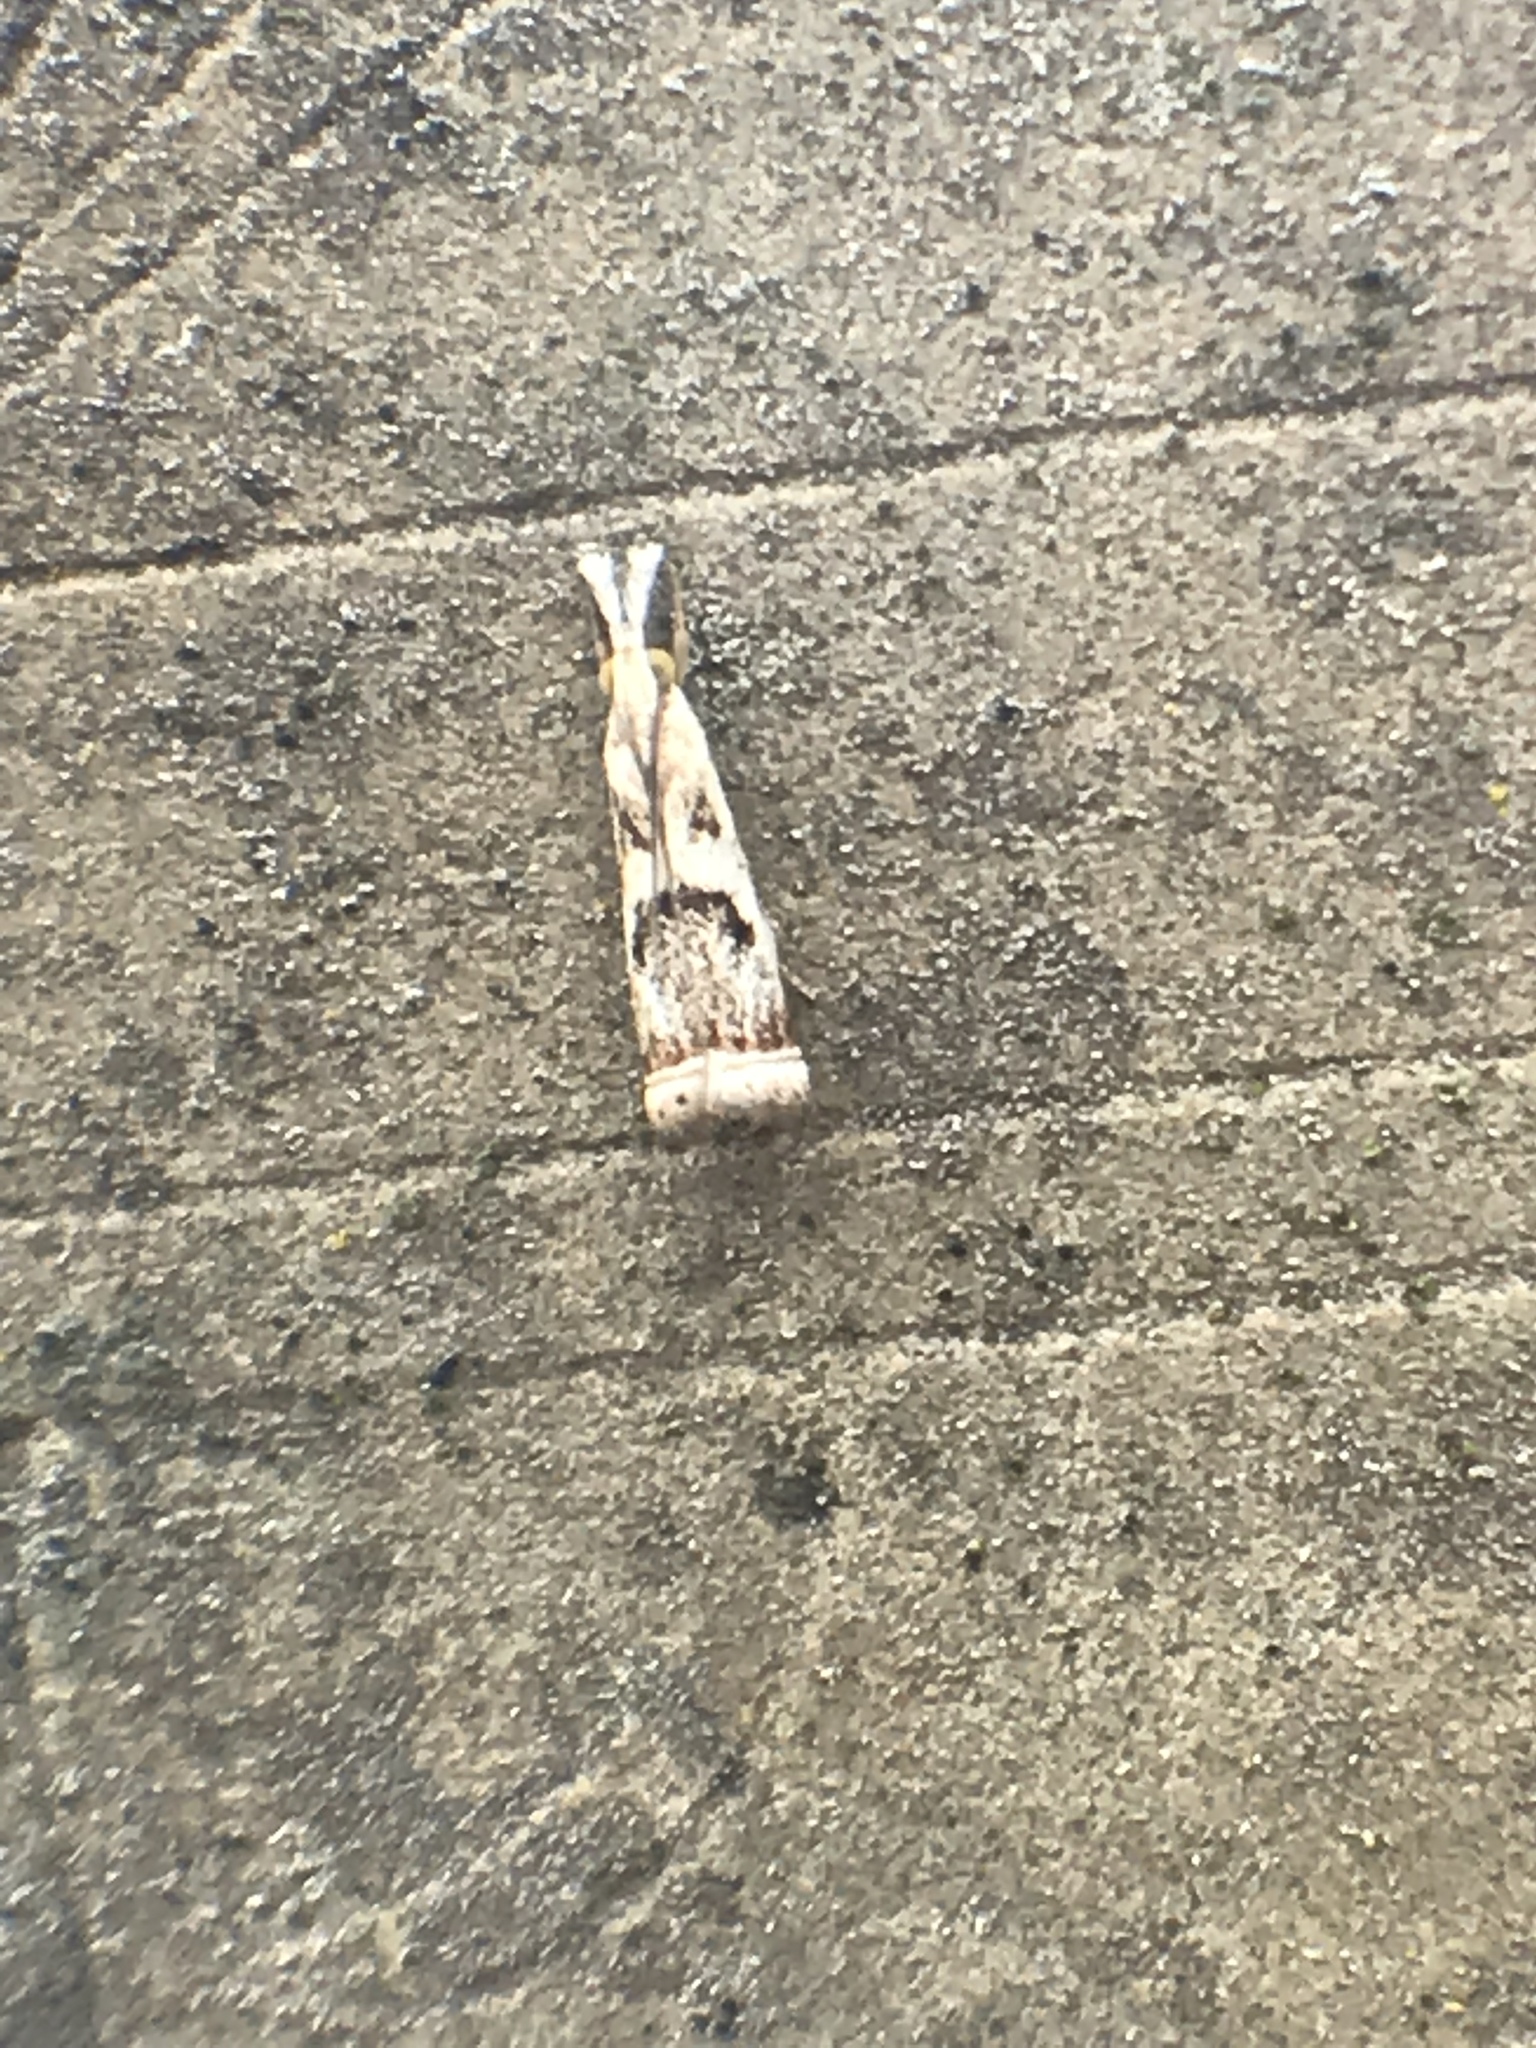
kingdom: Animalia
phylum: Arthropoda
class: Insecta
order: Lepidoptera
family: Crambidae
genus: Microcrambus
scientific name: Microcrambus elegans
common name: Elegant grass-veneer
